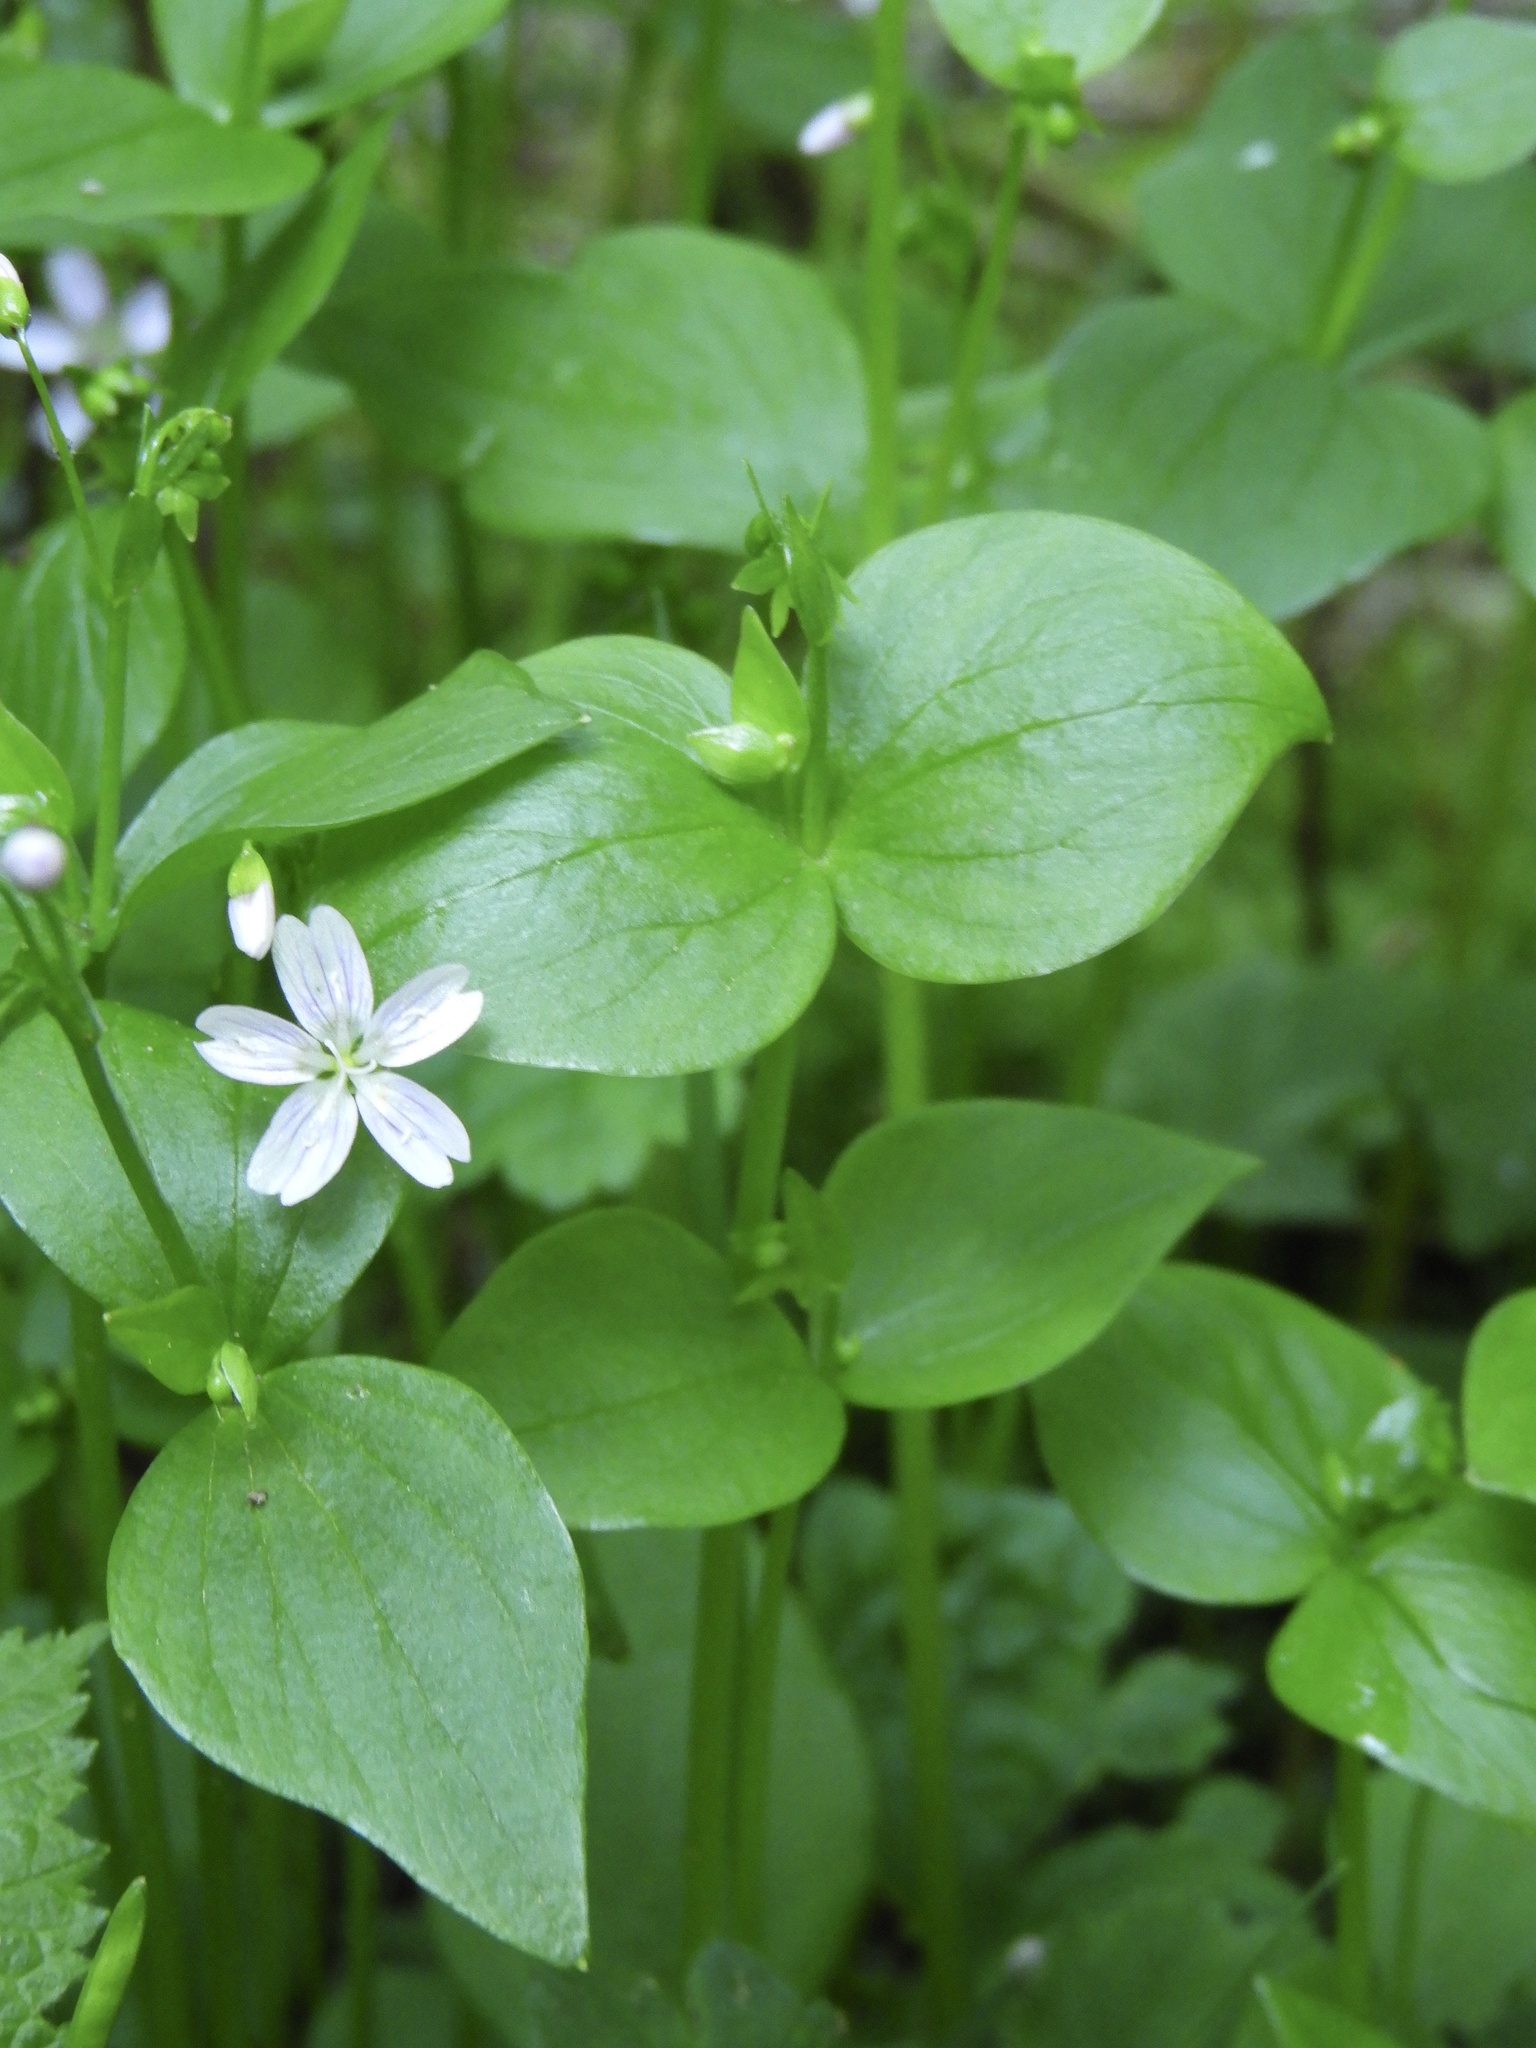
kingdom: Plantae
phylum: Tracheophyta
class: Magnoliopsida
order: Caryophyllales
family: Montiaceae
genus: Claytonia
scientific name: Claytonia sibirica
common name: Pink purslane
